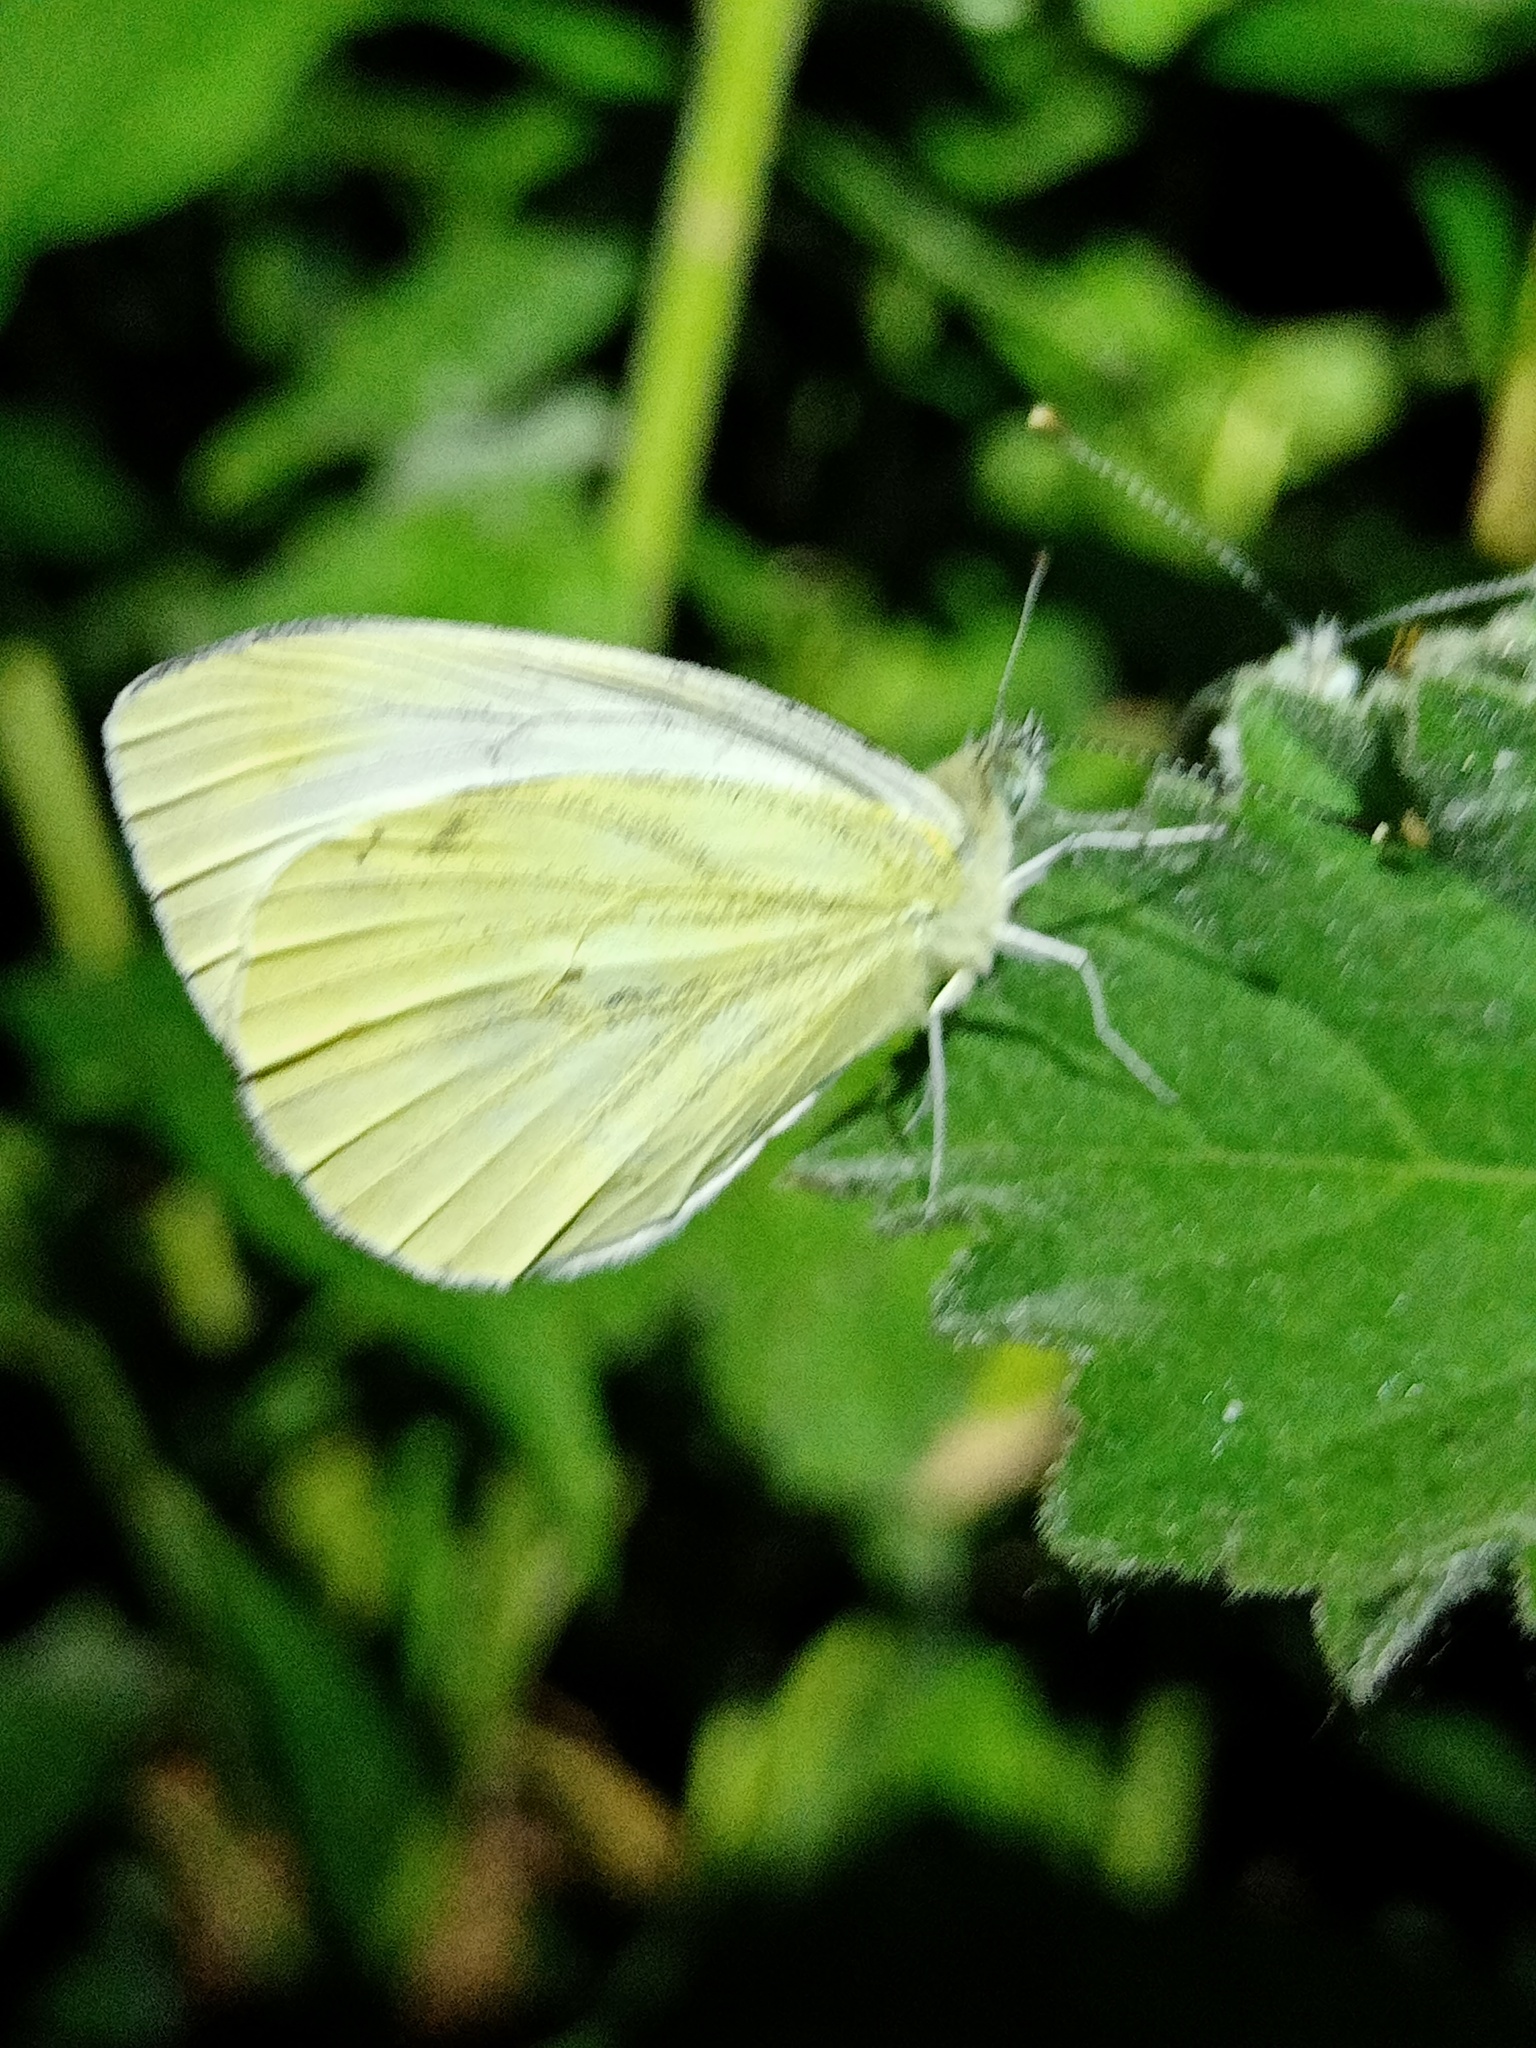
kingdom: Animalia
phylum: Arthropoda
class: Insecta
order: Lepidoptera
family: Pieridae
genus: Pieris
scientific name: Pieris napi
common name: Green-veined white
